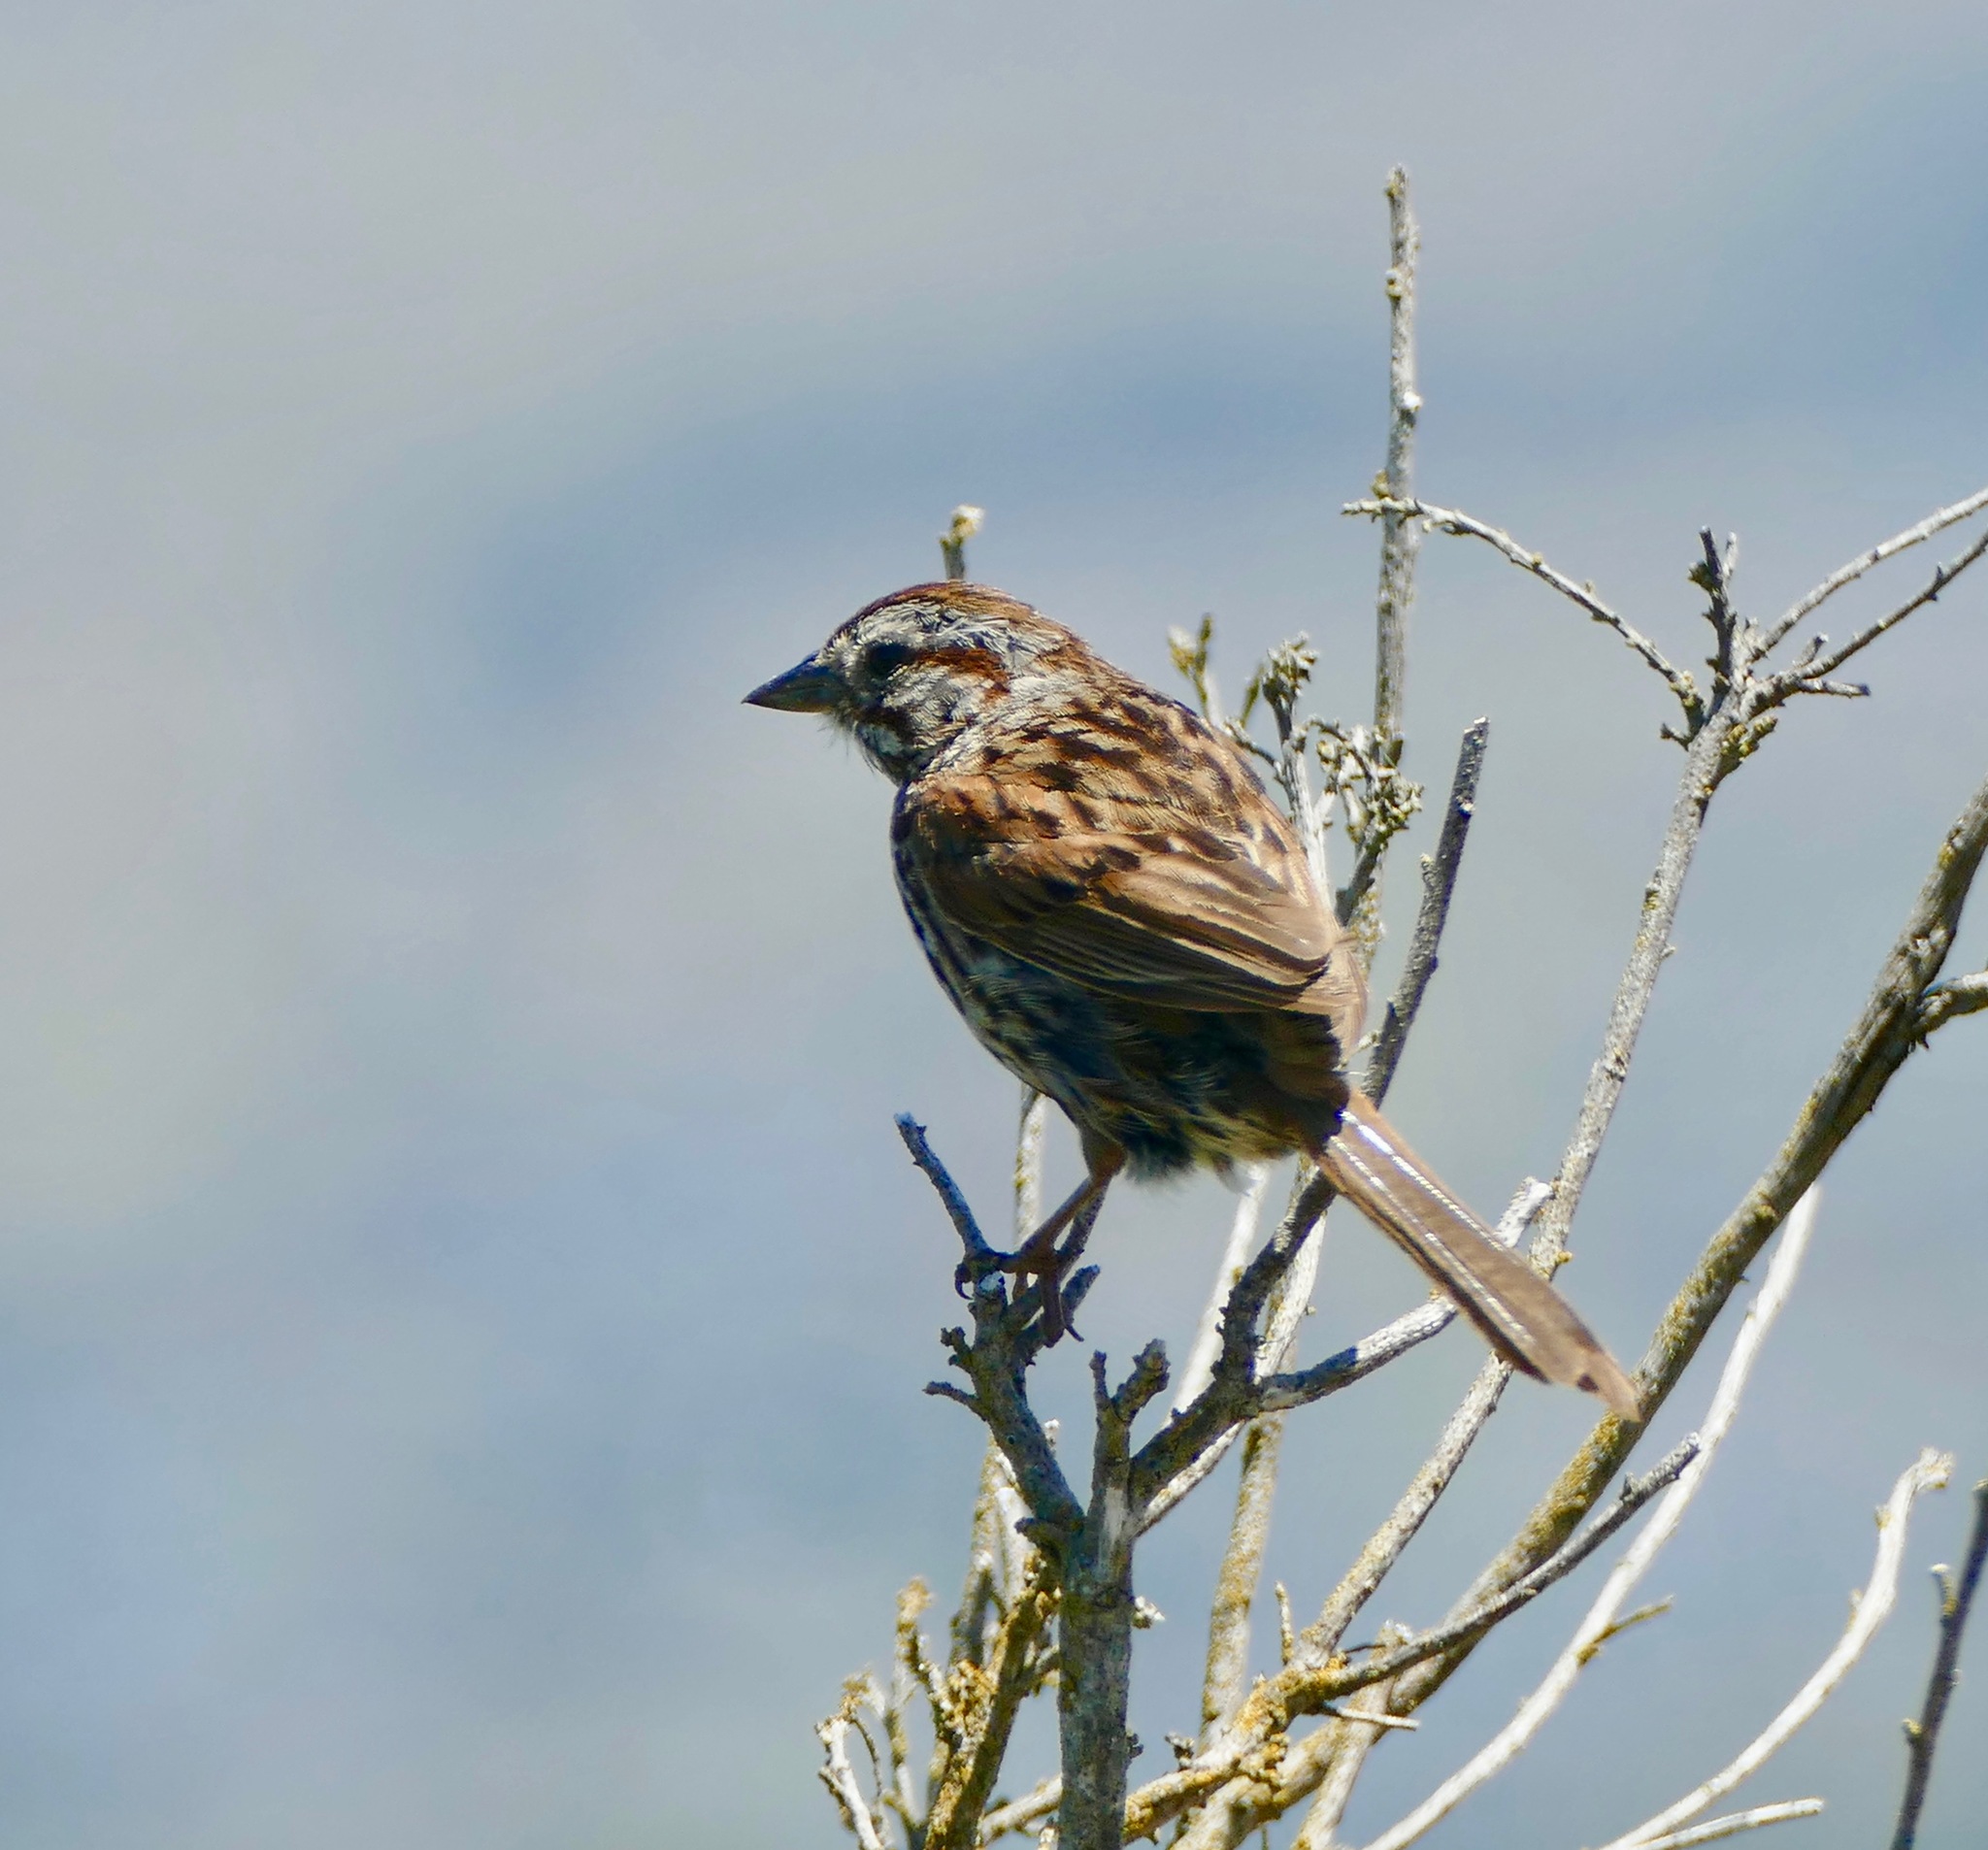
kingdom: Animalia
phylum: Chordata
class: Aves
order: Passeriformes
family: Passerellidae
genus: Melospiza
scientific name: Melospiza melodia
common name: Song sparrow
